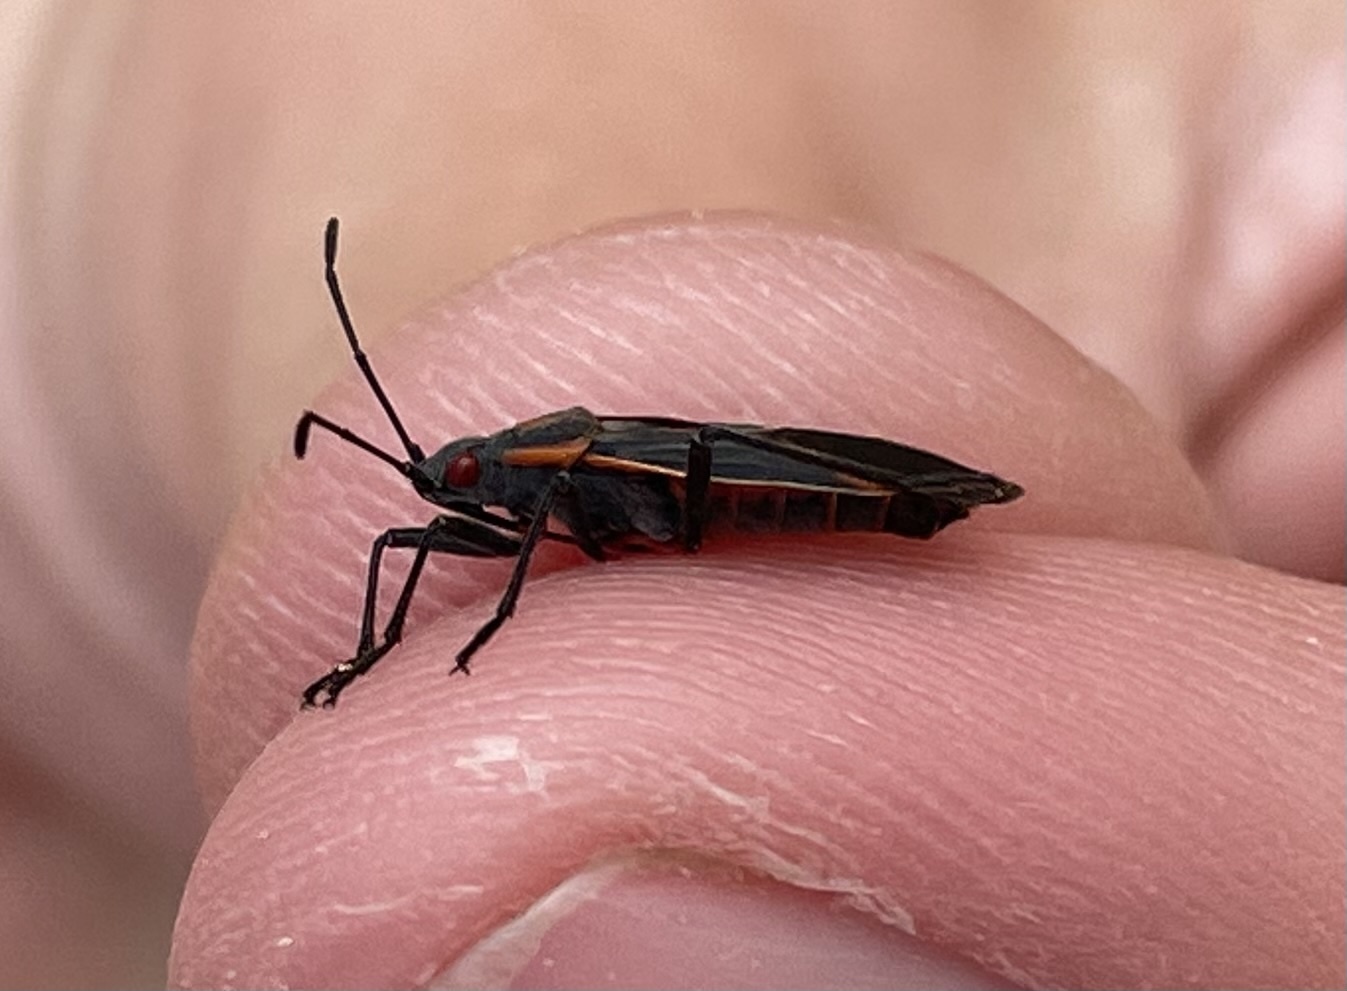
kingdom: Animalia
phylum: Arthropoda
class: Insecta
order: Hemiptera
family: Rhopalidae
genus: Boisea
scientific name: Boisea trivittata
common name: Boxelder bug
